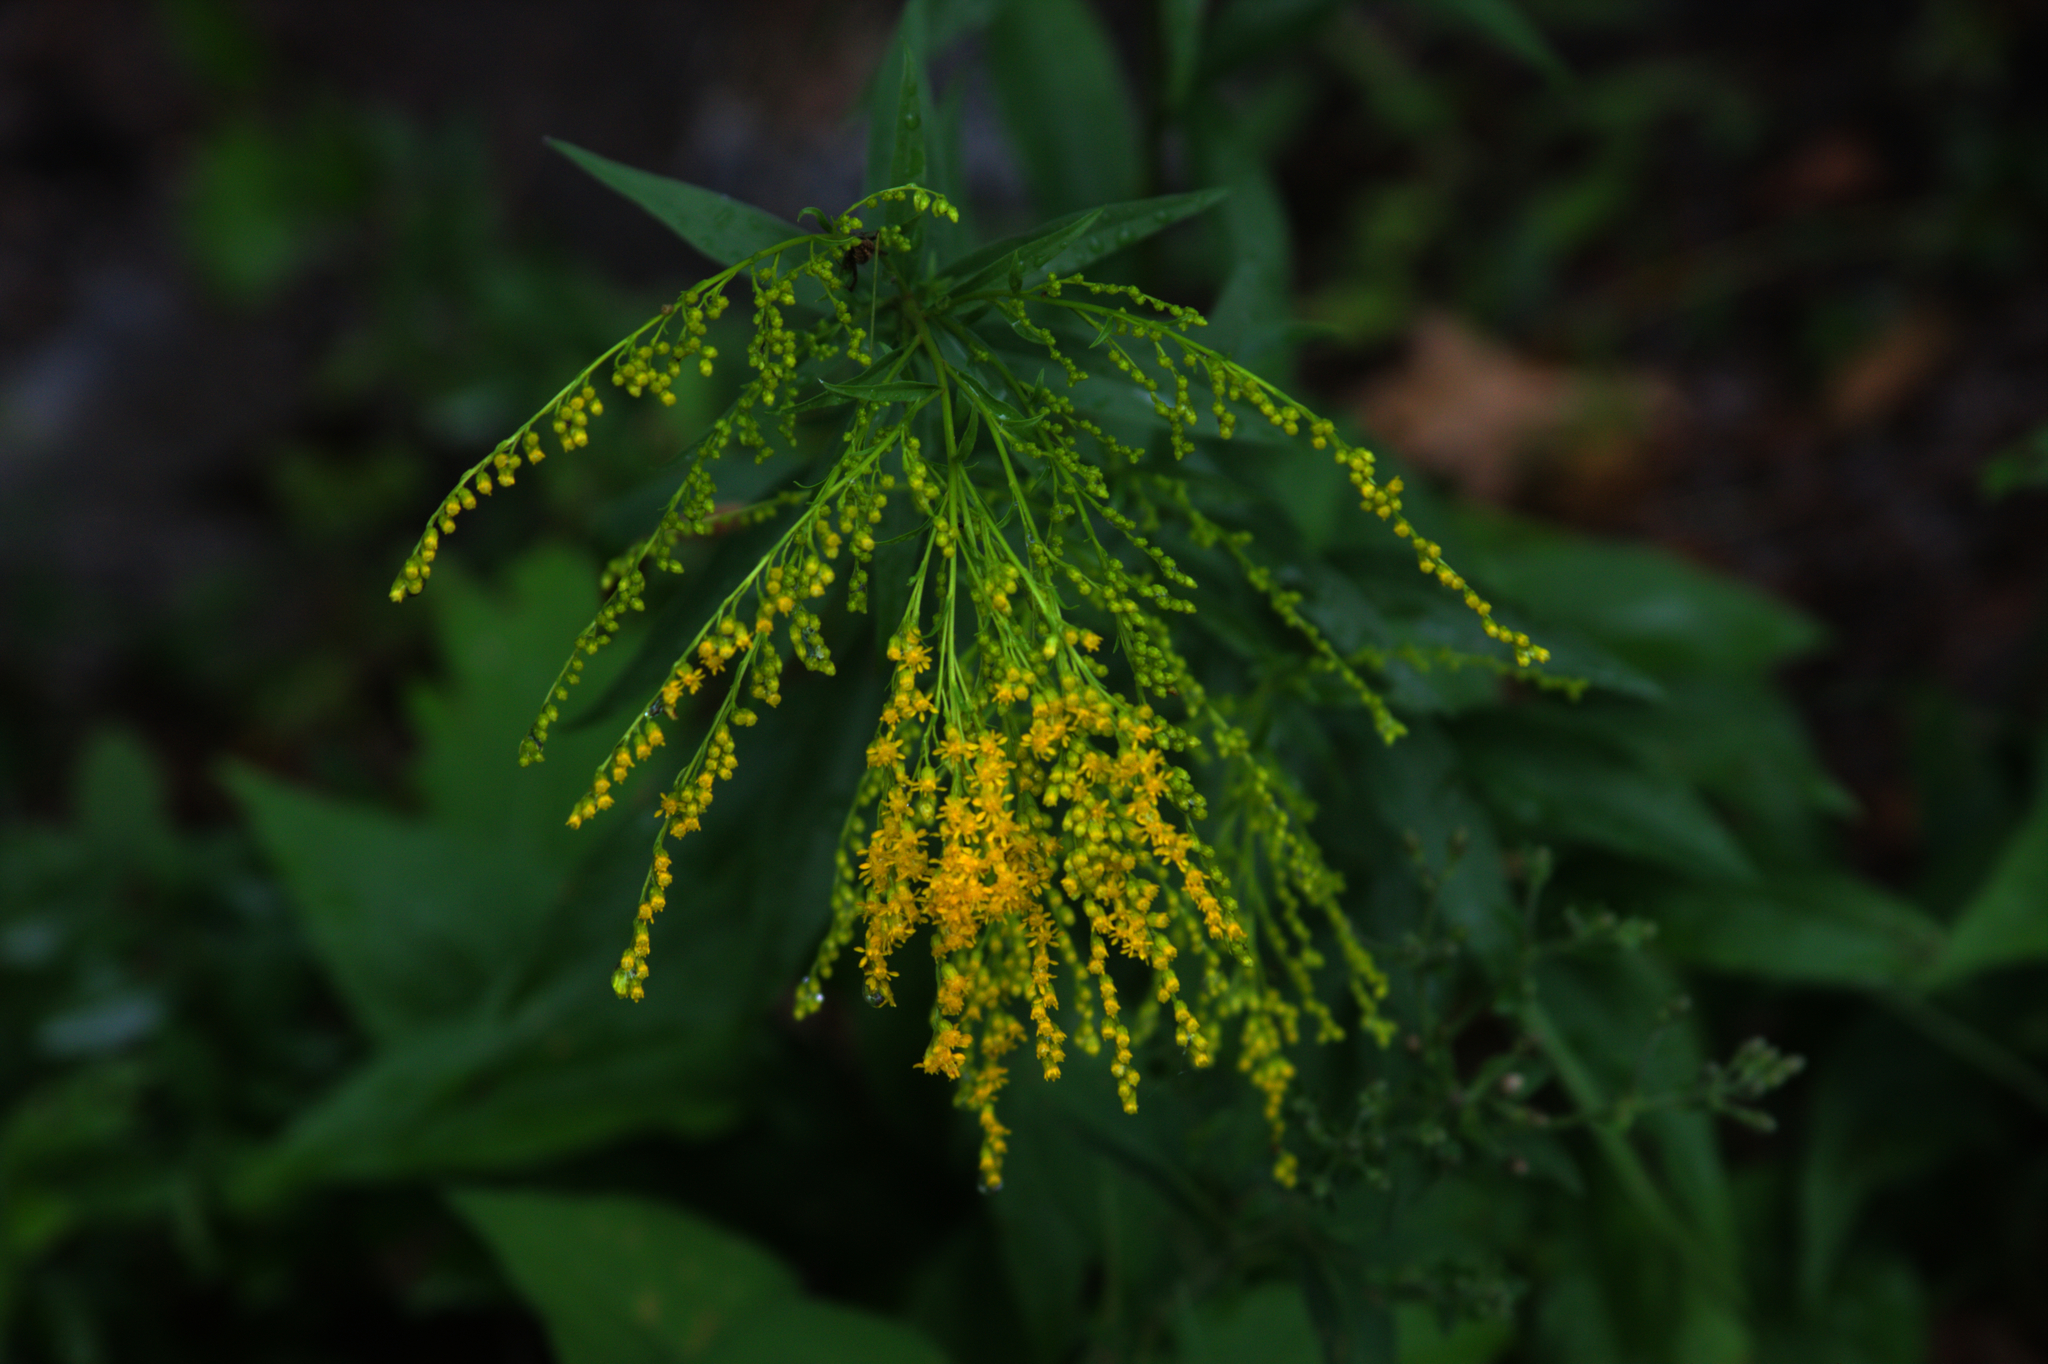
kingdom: Plantae
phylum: Tracheophyta
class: Magnoliopsida
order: Asterales
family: Asteraceae
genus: Solidago
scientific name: Solidago juncea
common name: Early goldenrod
